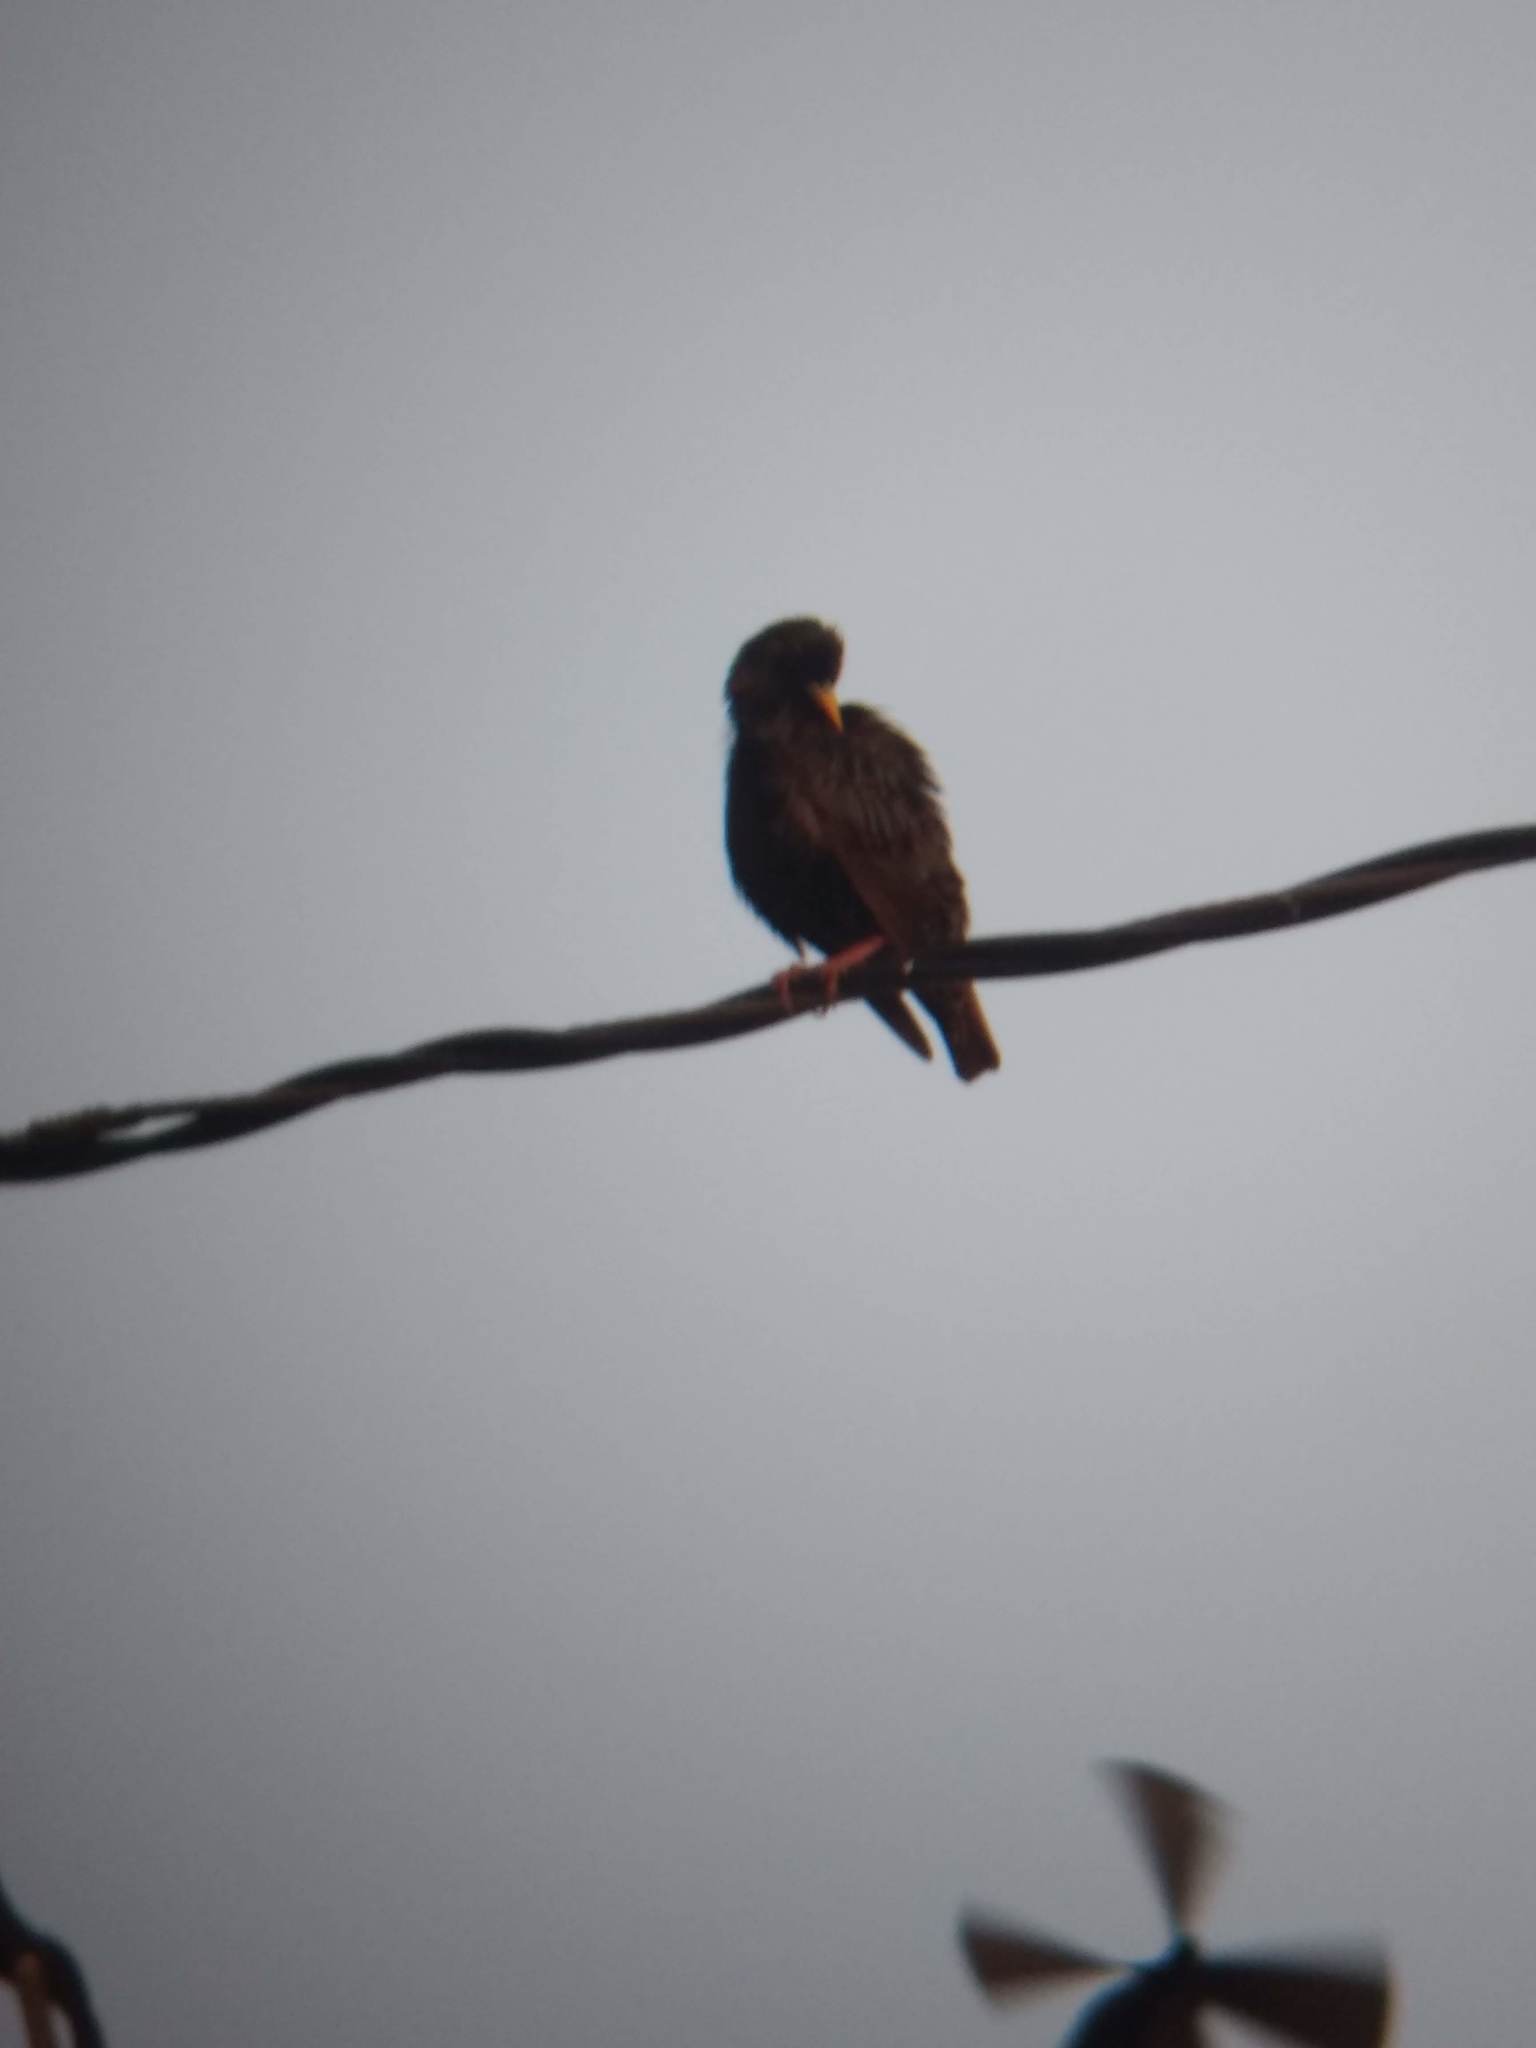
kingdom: Animalia
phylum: Chordata
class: Aves
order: Passeriformes
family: Sturnidae
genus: Sturnus
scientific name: Sturnus vulgaris
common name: Common starling
